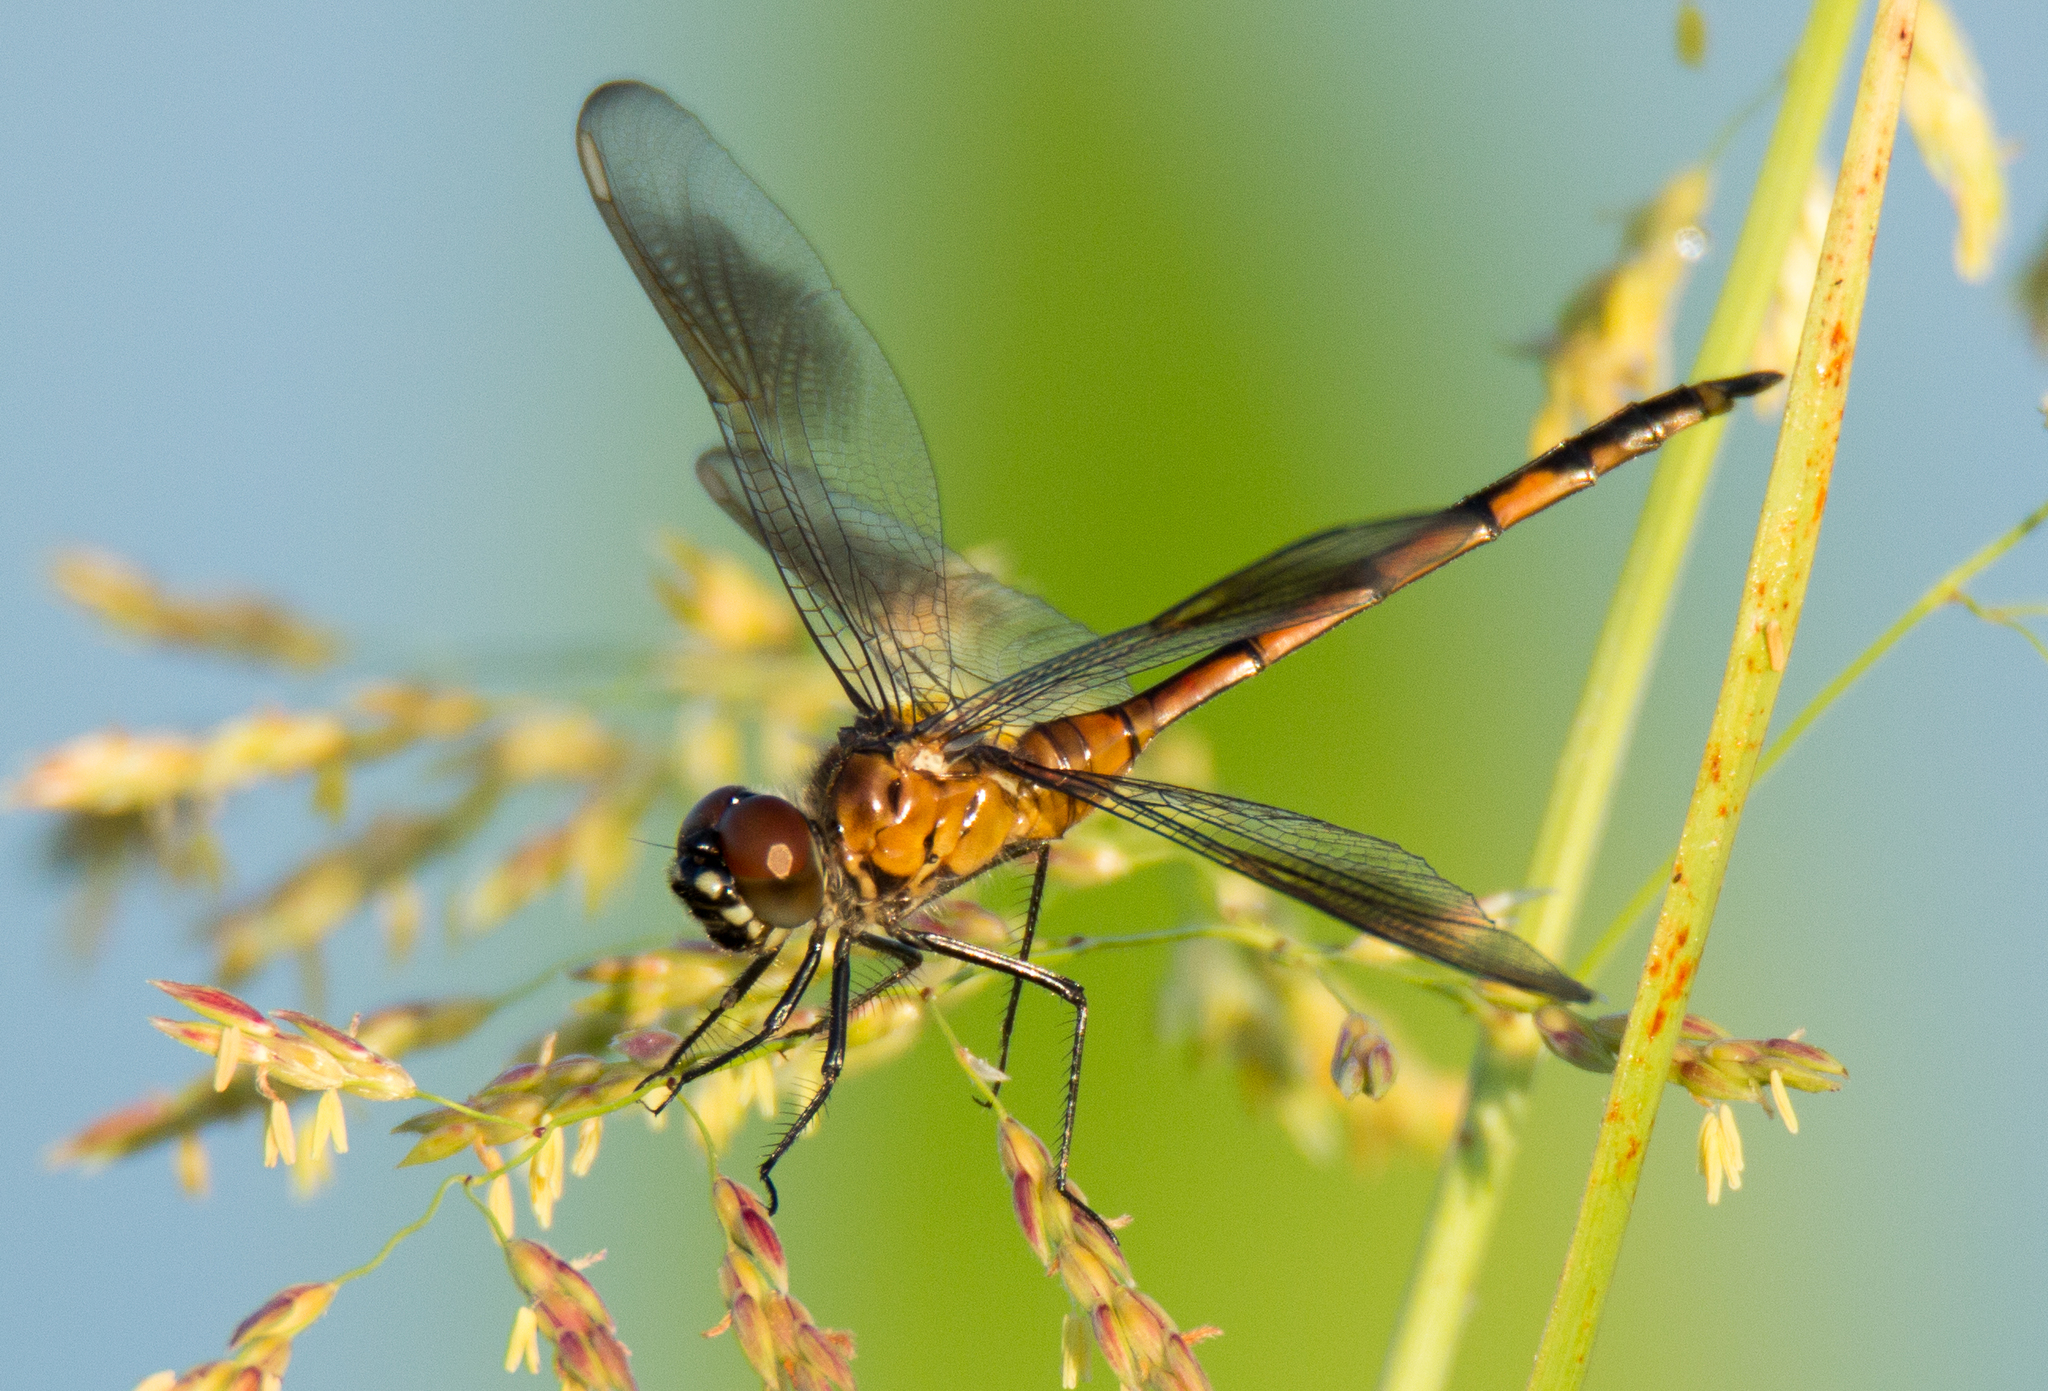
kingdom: Animalia
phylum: Arthropoda
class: Insecta
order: Odonata
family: Libellulidae
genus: Brachymesia
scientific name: Brachymesia gravida
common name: Four-spotted pennant
